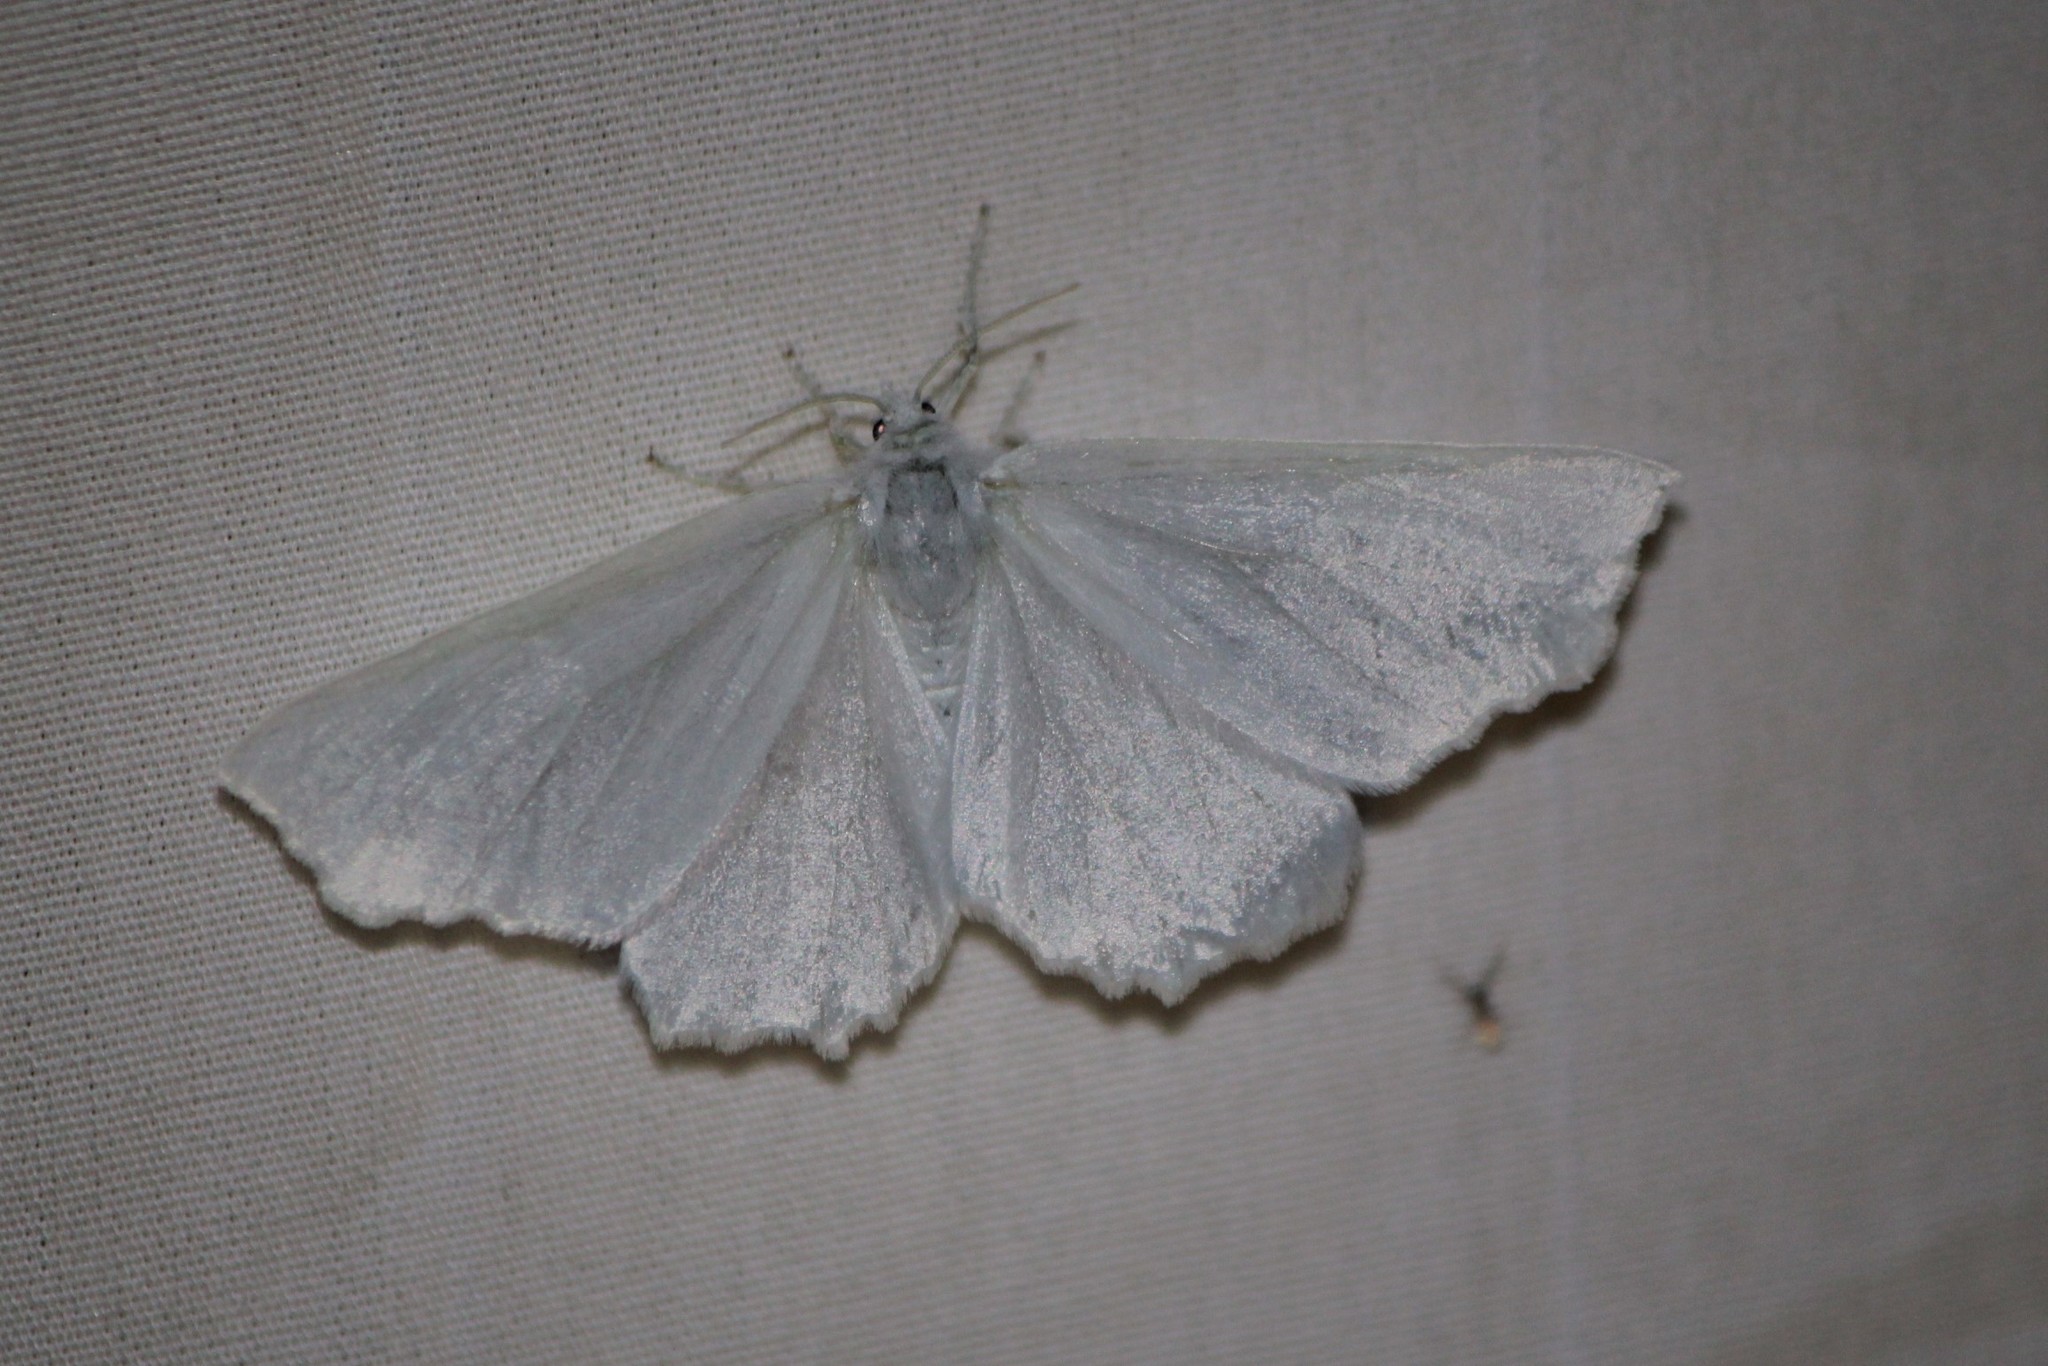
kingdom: Animalia
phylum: Arthropoda
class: Insecta
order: Lepidoptera
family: Geometridae
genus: Ennomos
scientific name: Ennomos subsignaria
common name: Elm spanworm
